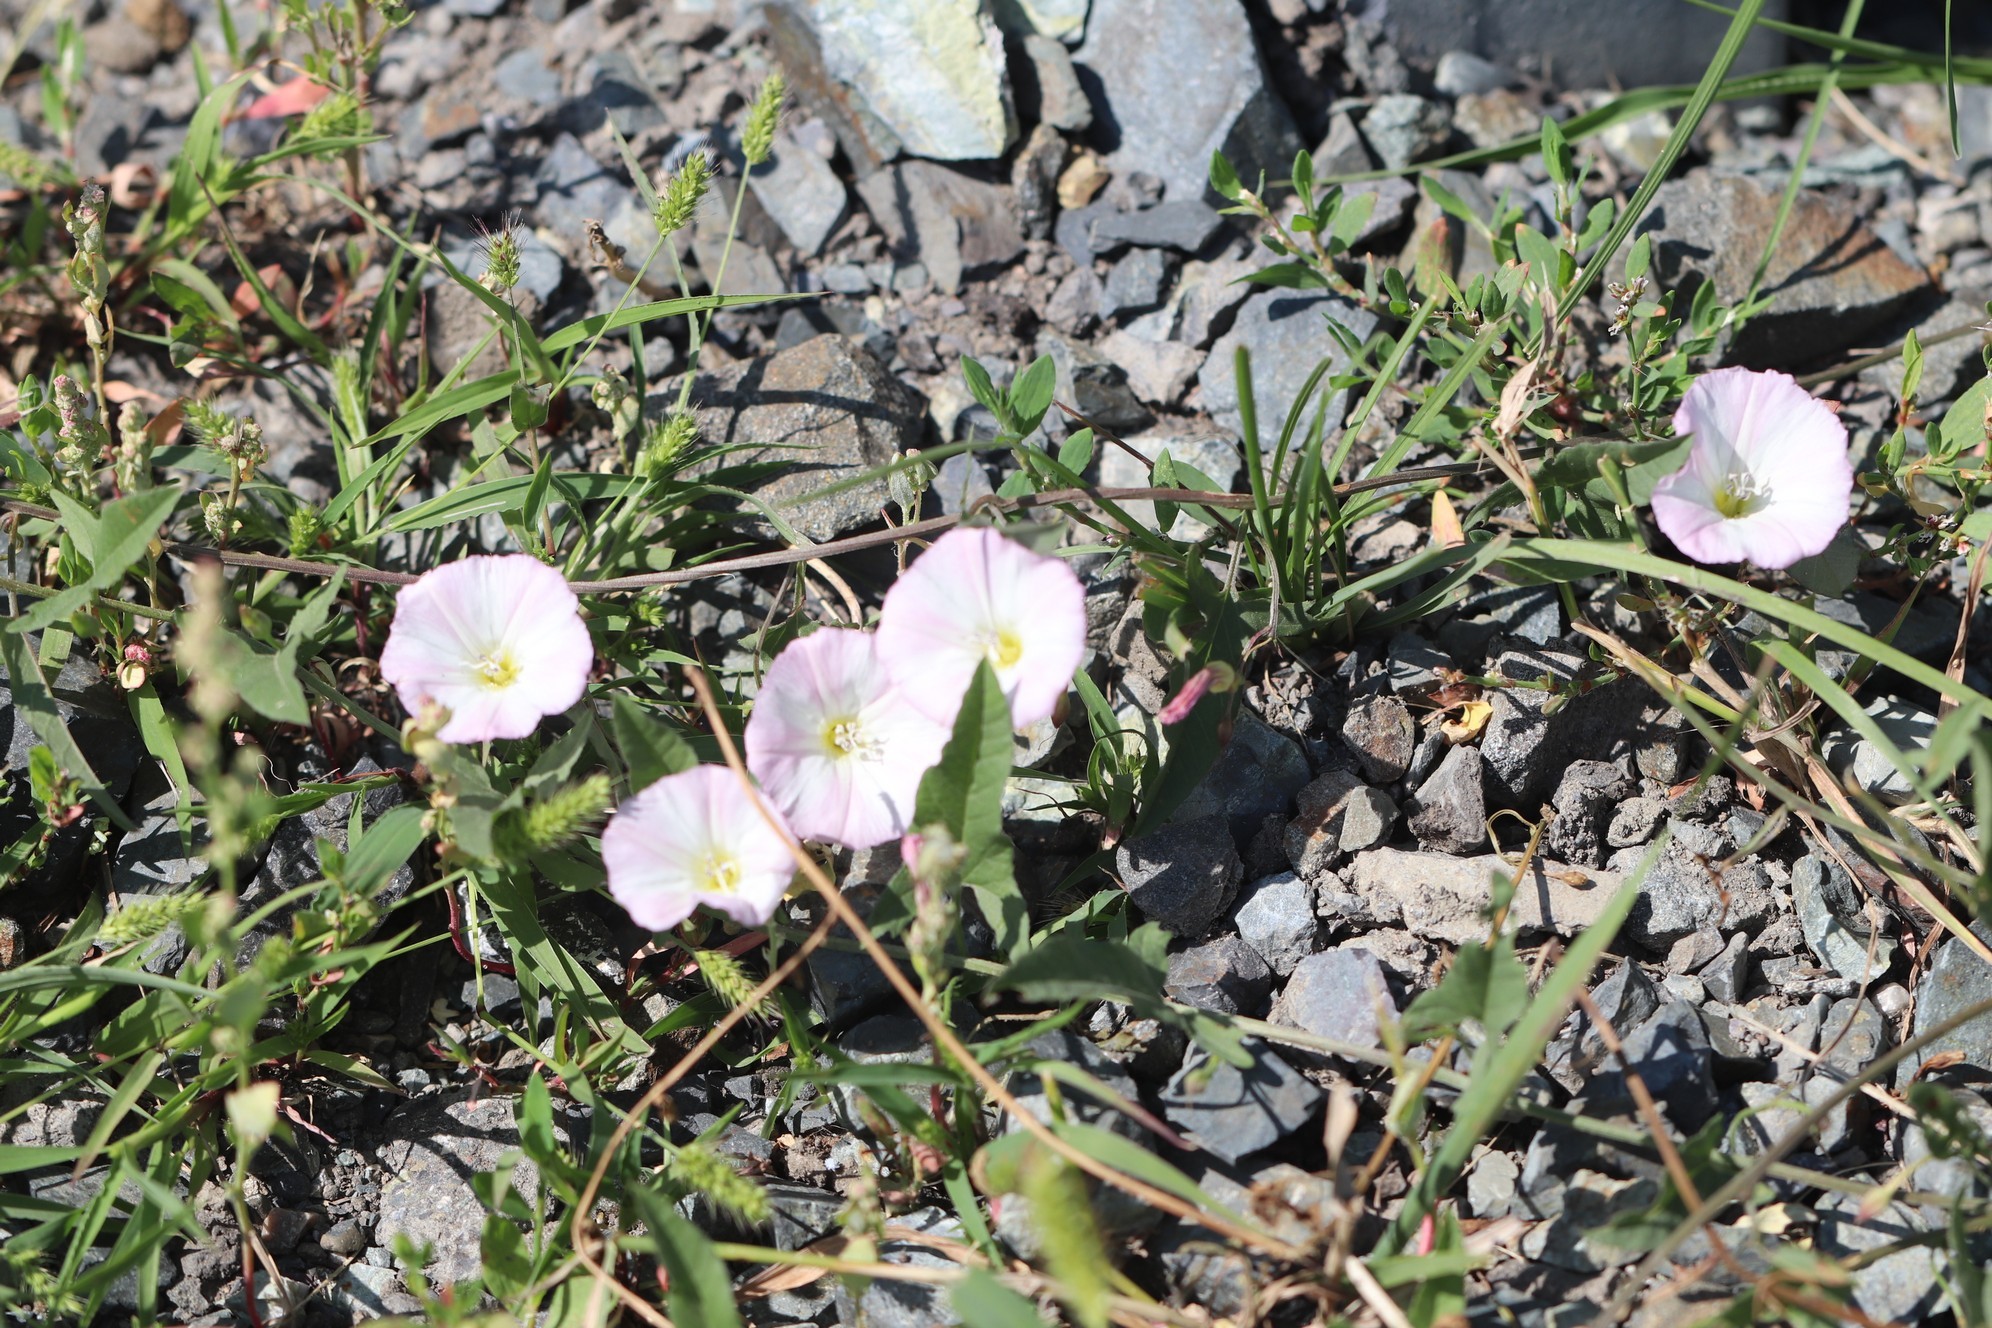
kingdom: Plantae
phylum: Tracheophyta
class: Magnoliopsida
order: Solanales
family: Convolvulaceae
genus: Convolvulus
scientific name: Convolvulus arvensis
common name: Field bindweed
